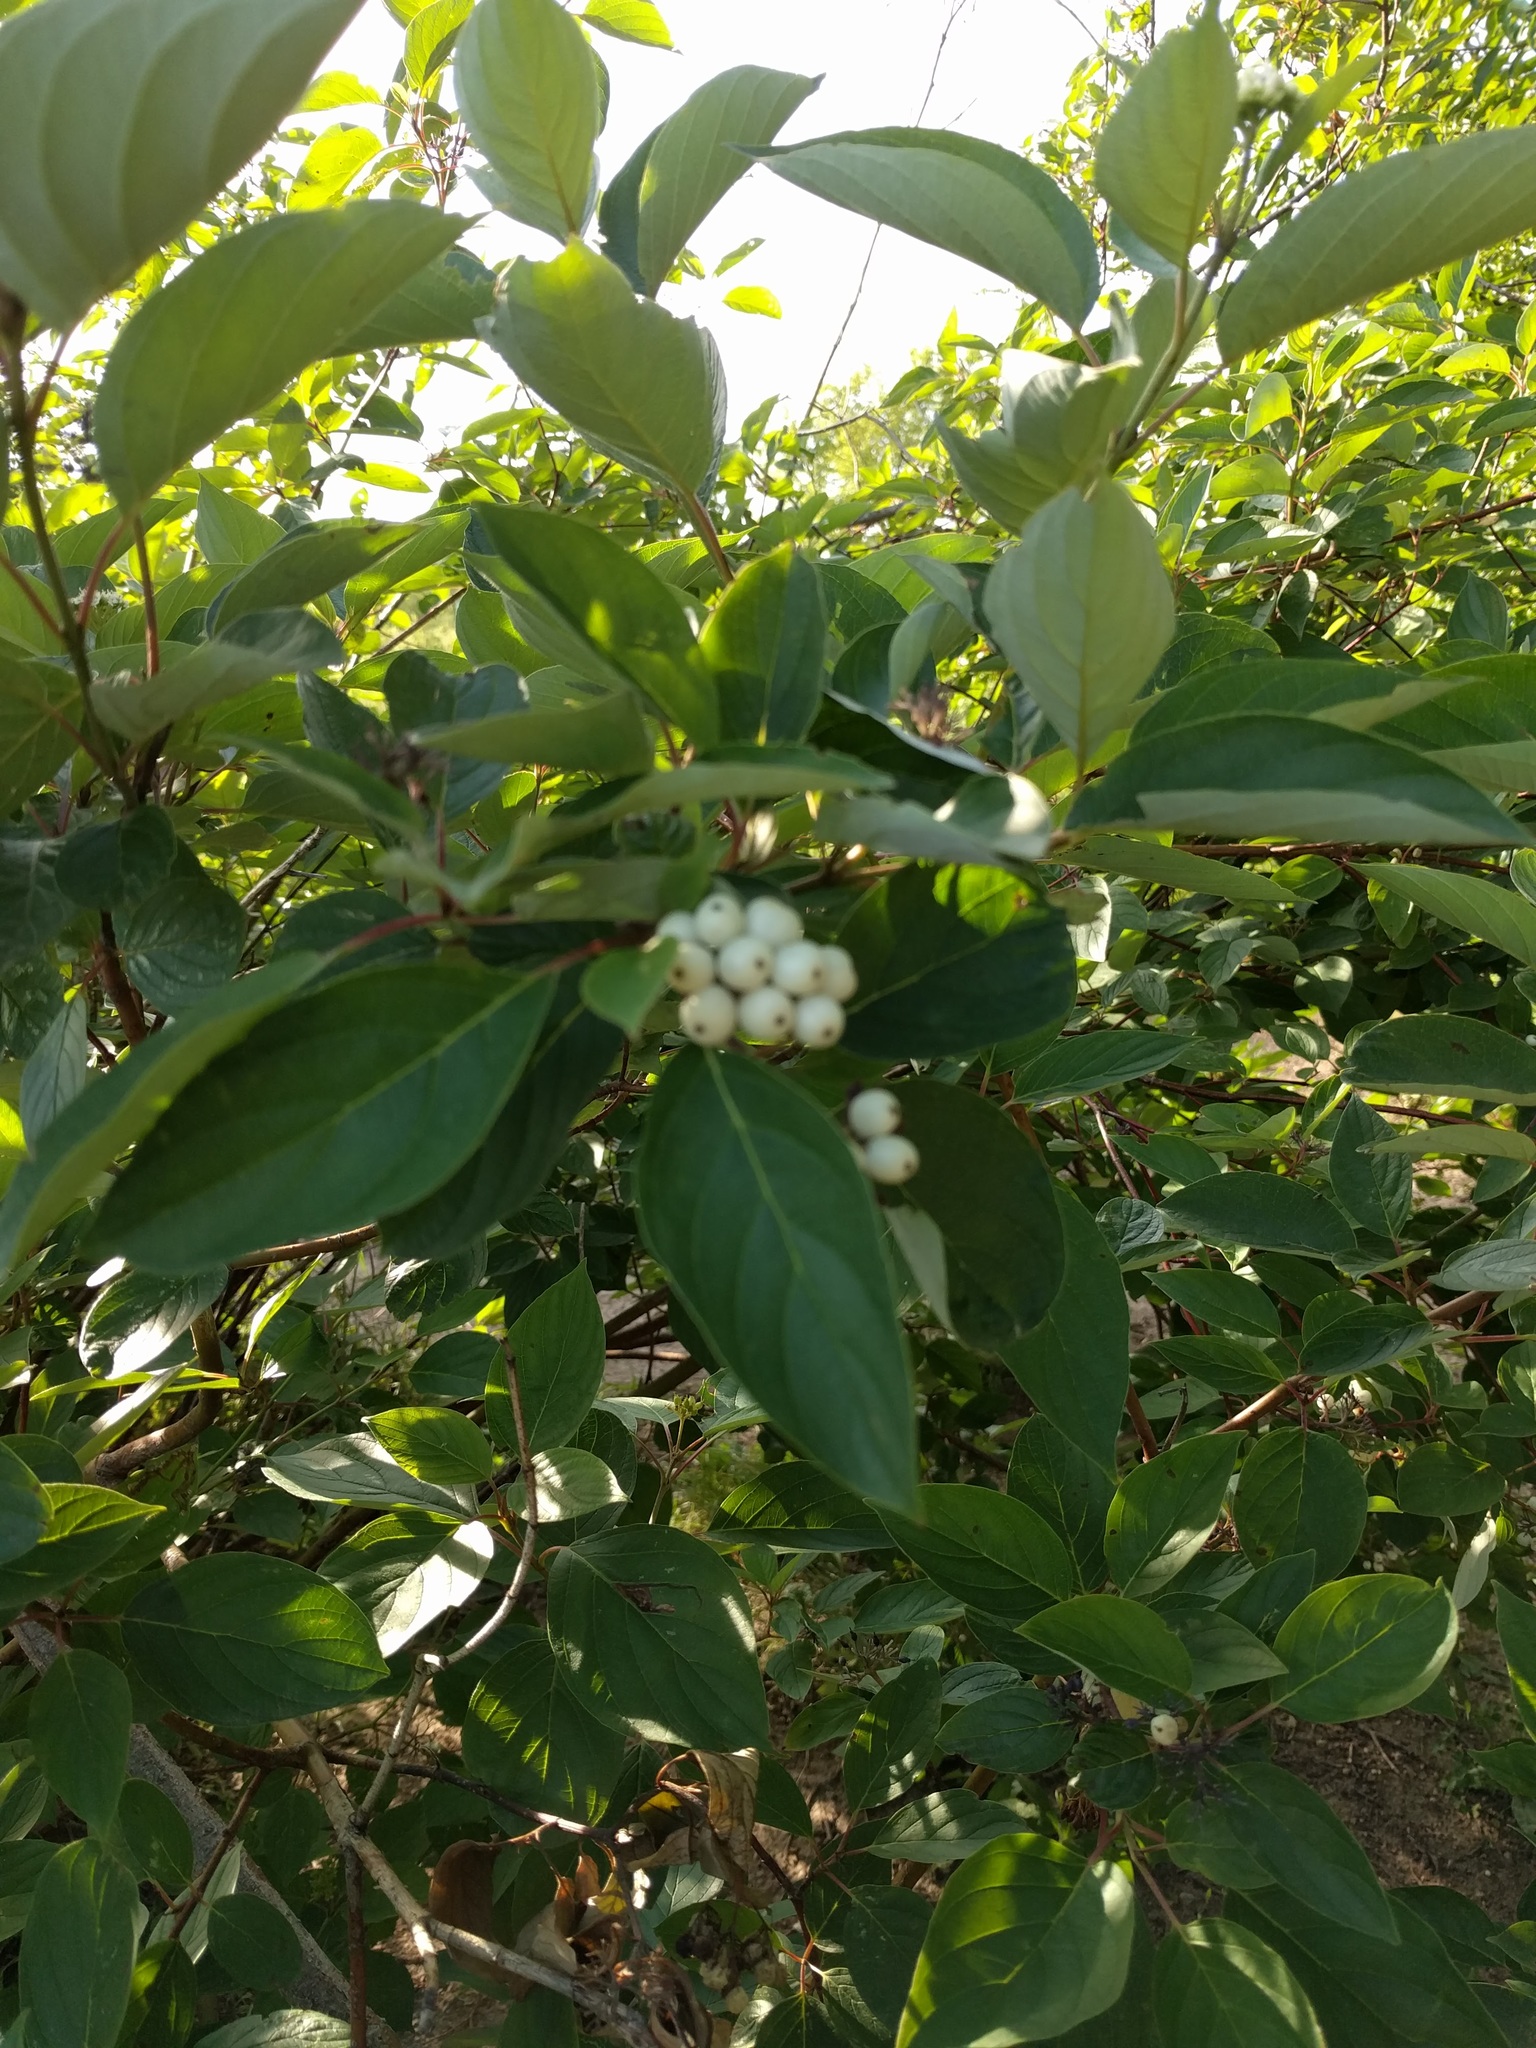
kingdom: Plantae
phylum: Tracheophyta
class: Magnoliopsida
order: Cornales
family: Cornaceae
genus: Cornus
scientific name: Cornus sericea
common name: Red-osier dogwood
